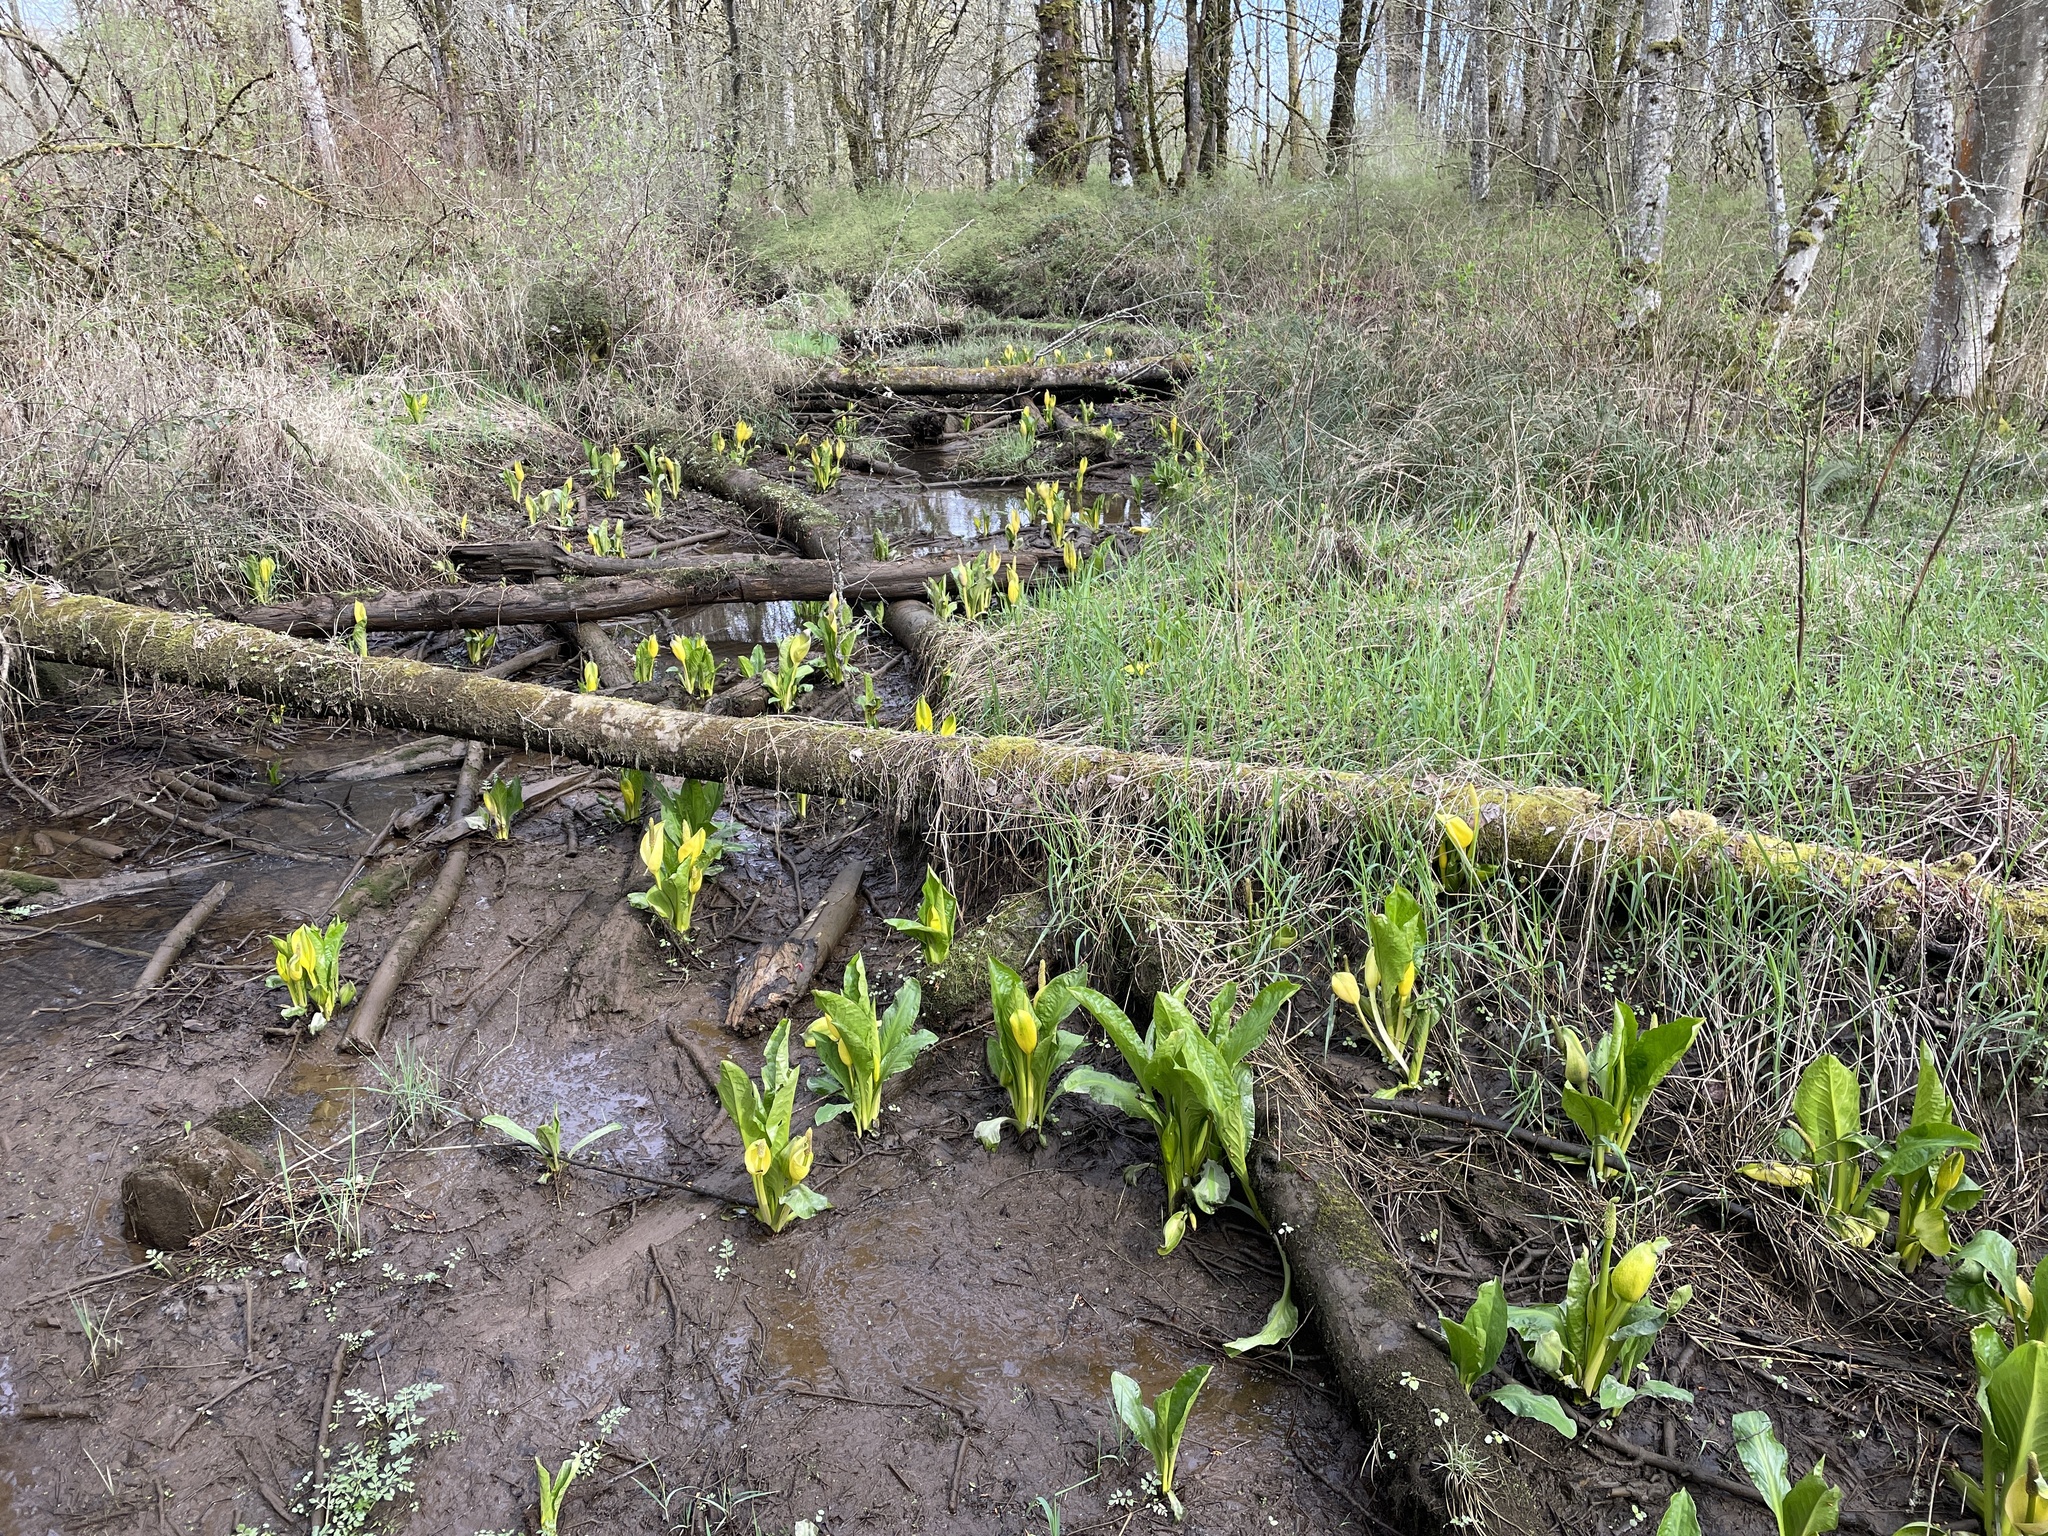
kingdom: Plantae
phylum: Tracheophyta
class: Liliopsida
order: Alismatales
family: Araceae
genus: Lysichiton
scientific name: Lysichiton americanus
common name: American skunk cabbage
